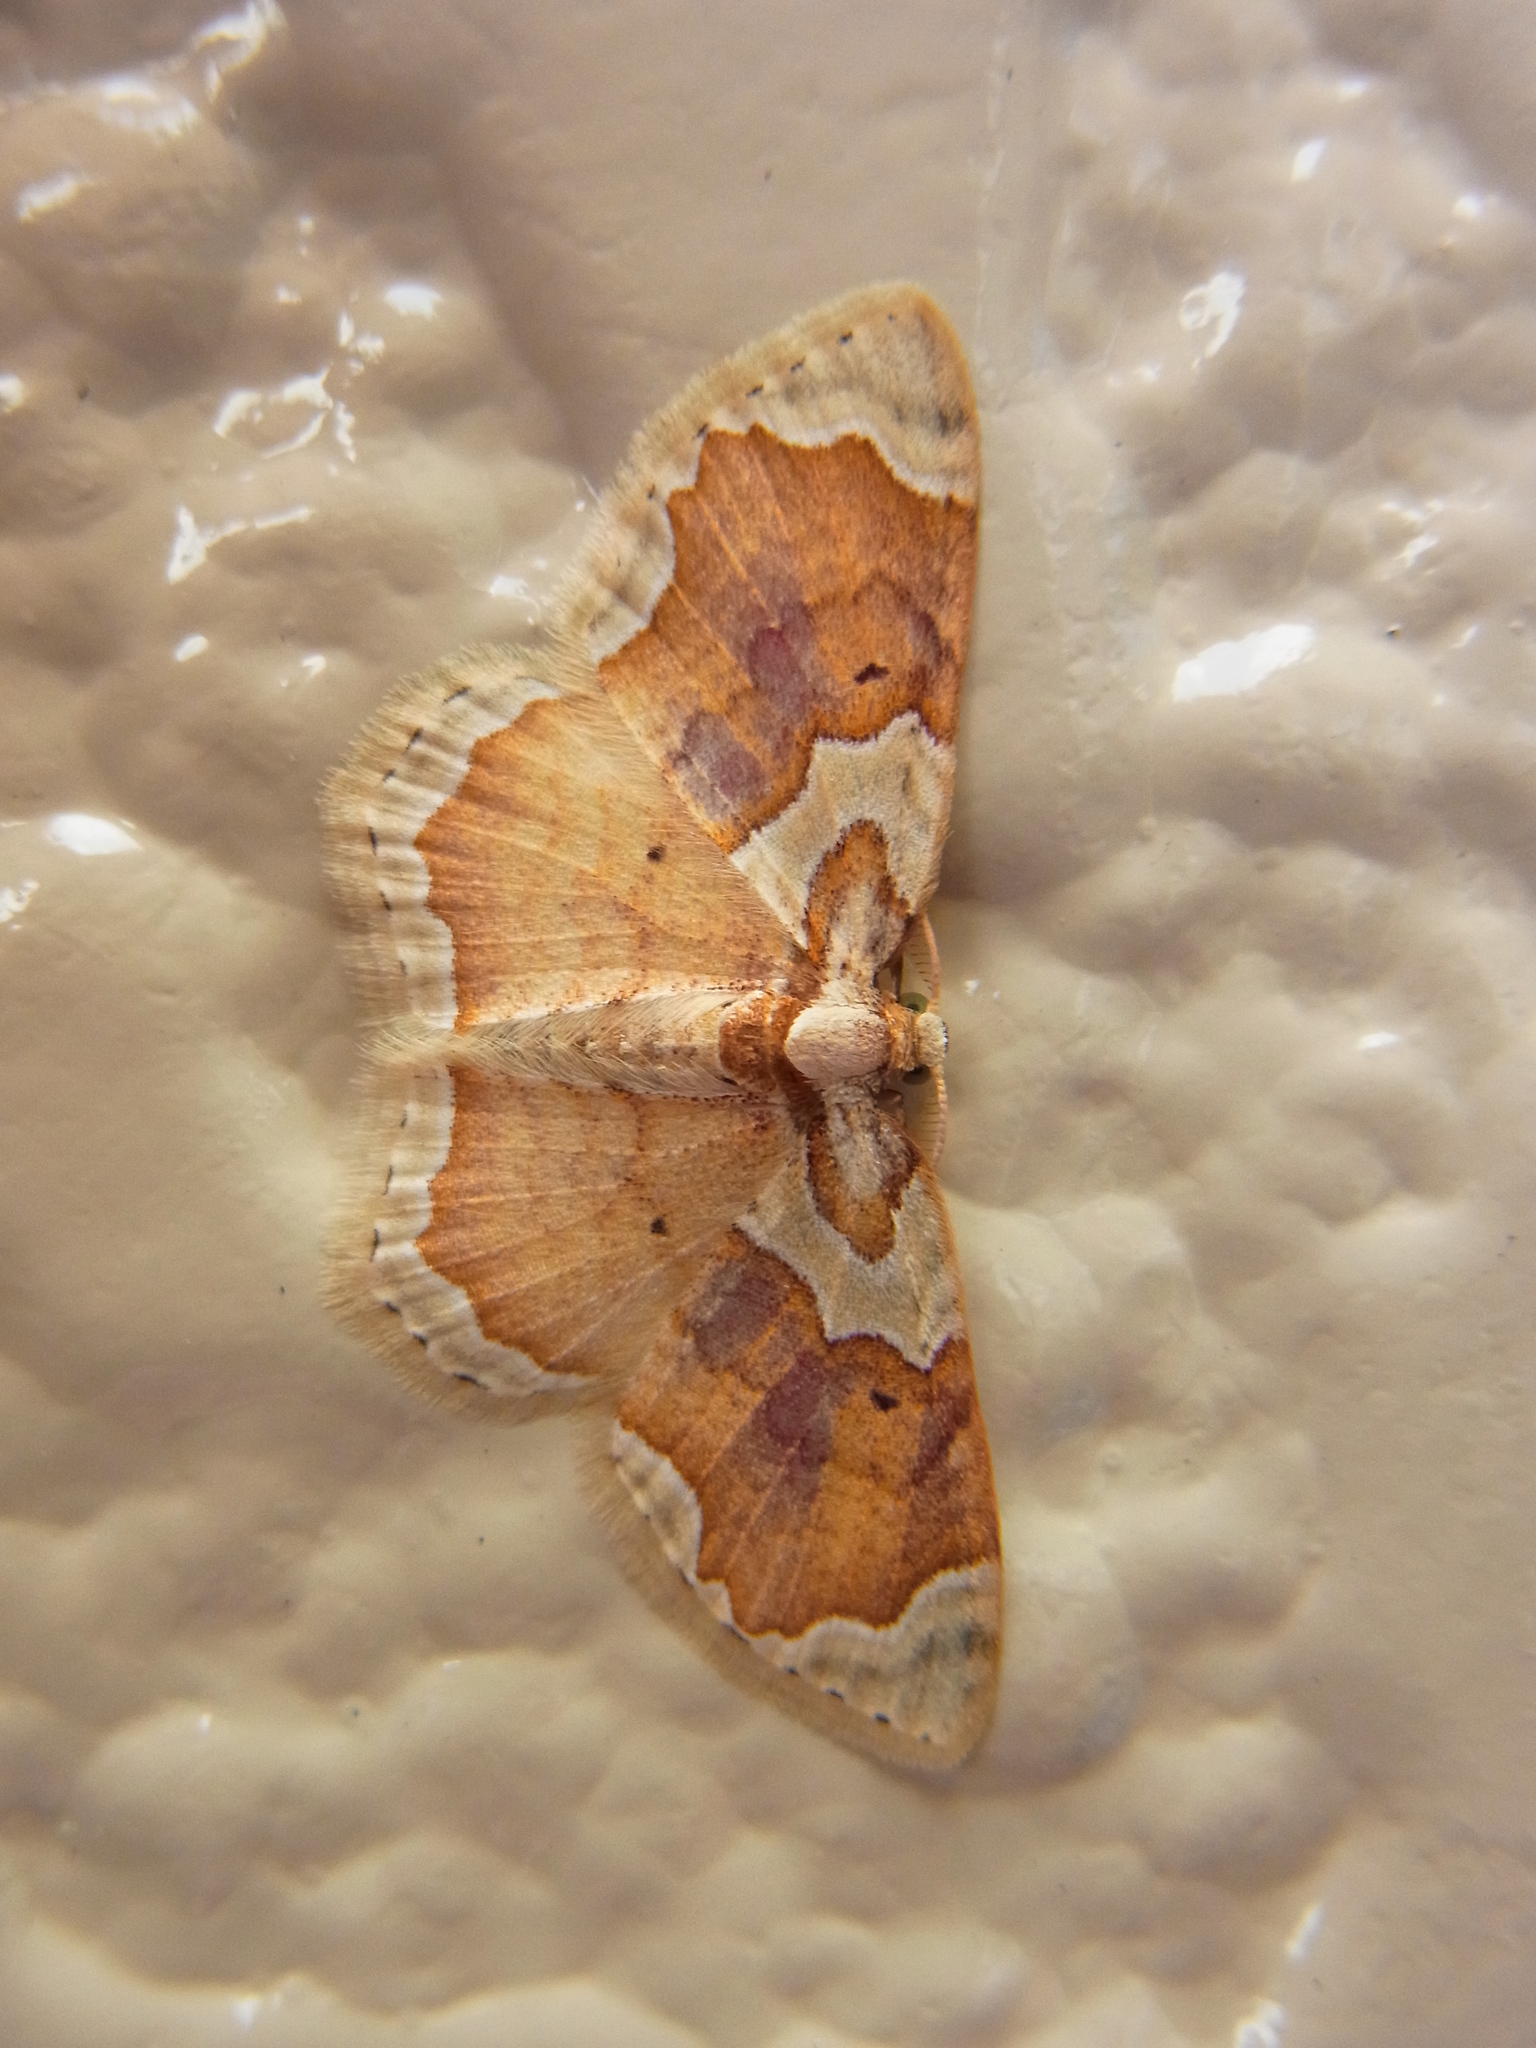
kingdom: Animalia
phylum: Arthropoda
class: Insecta
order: Lepidoptera
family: Geometridae
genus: Palpoctenidia
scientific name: Palpoctenidia phoenicosoma
